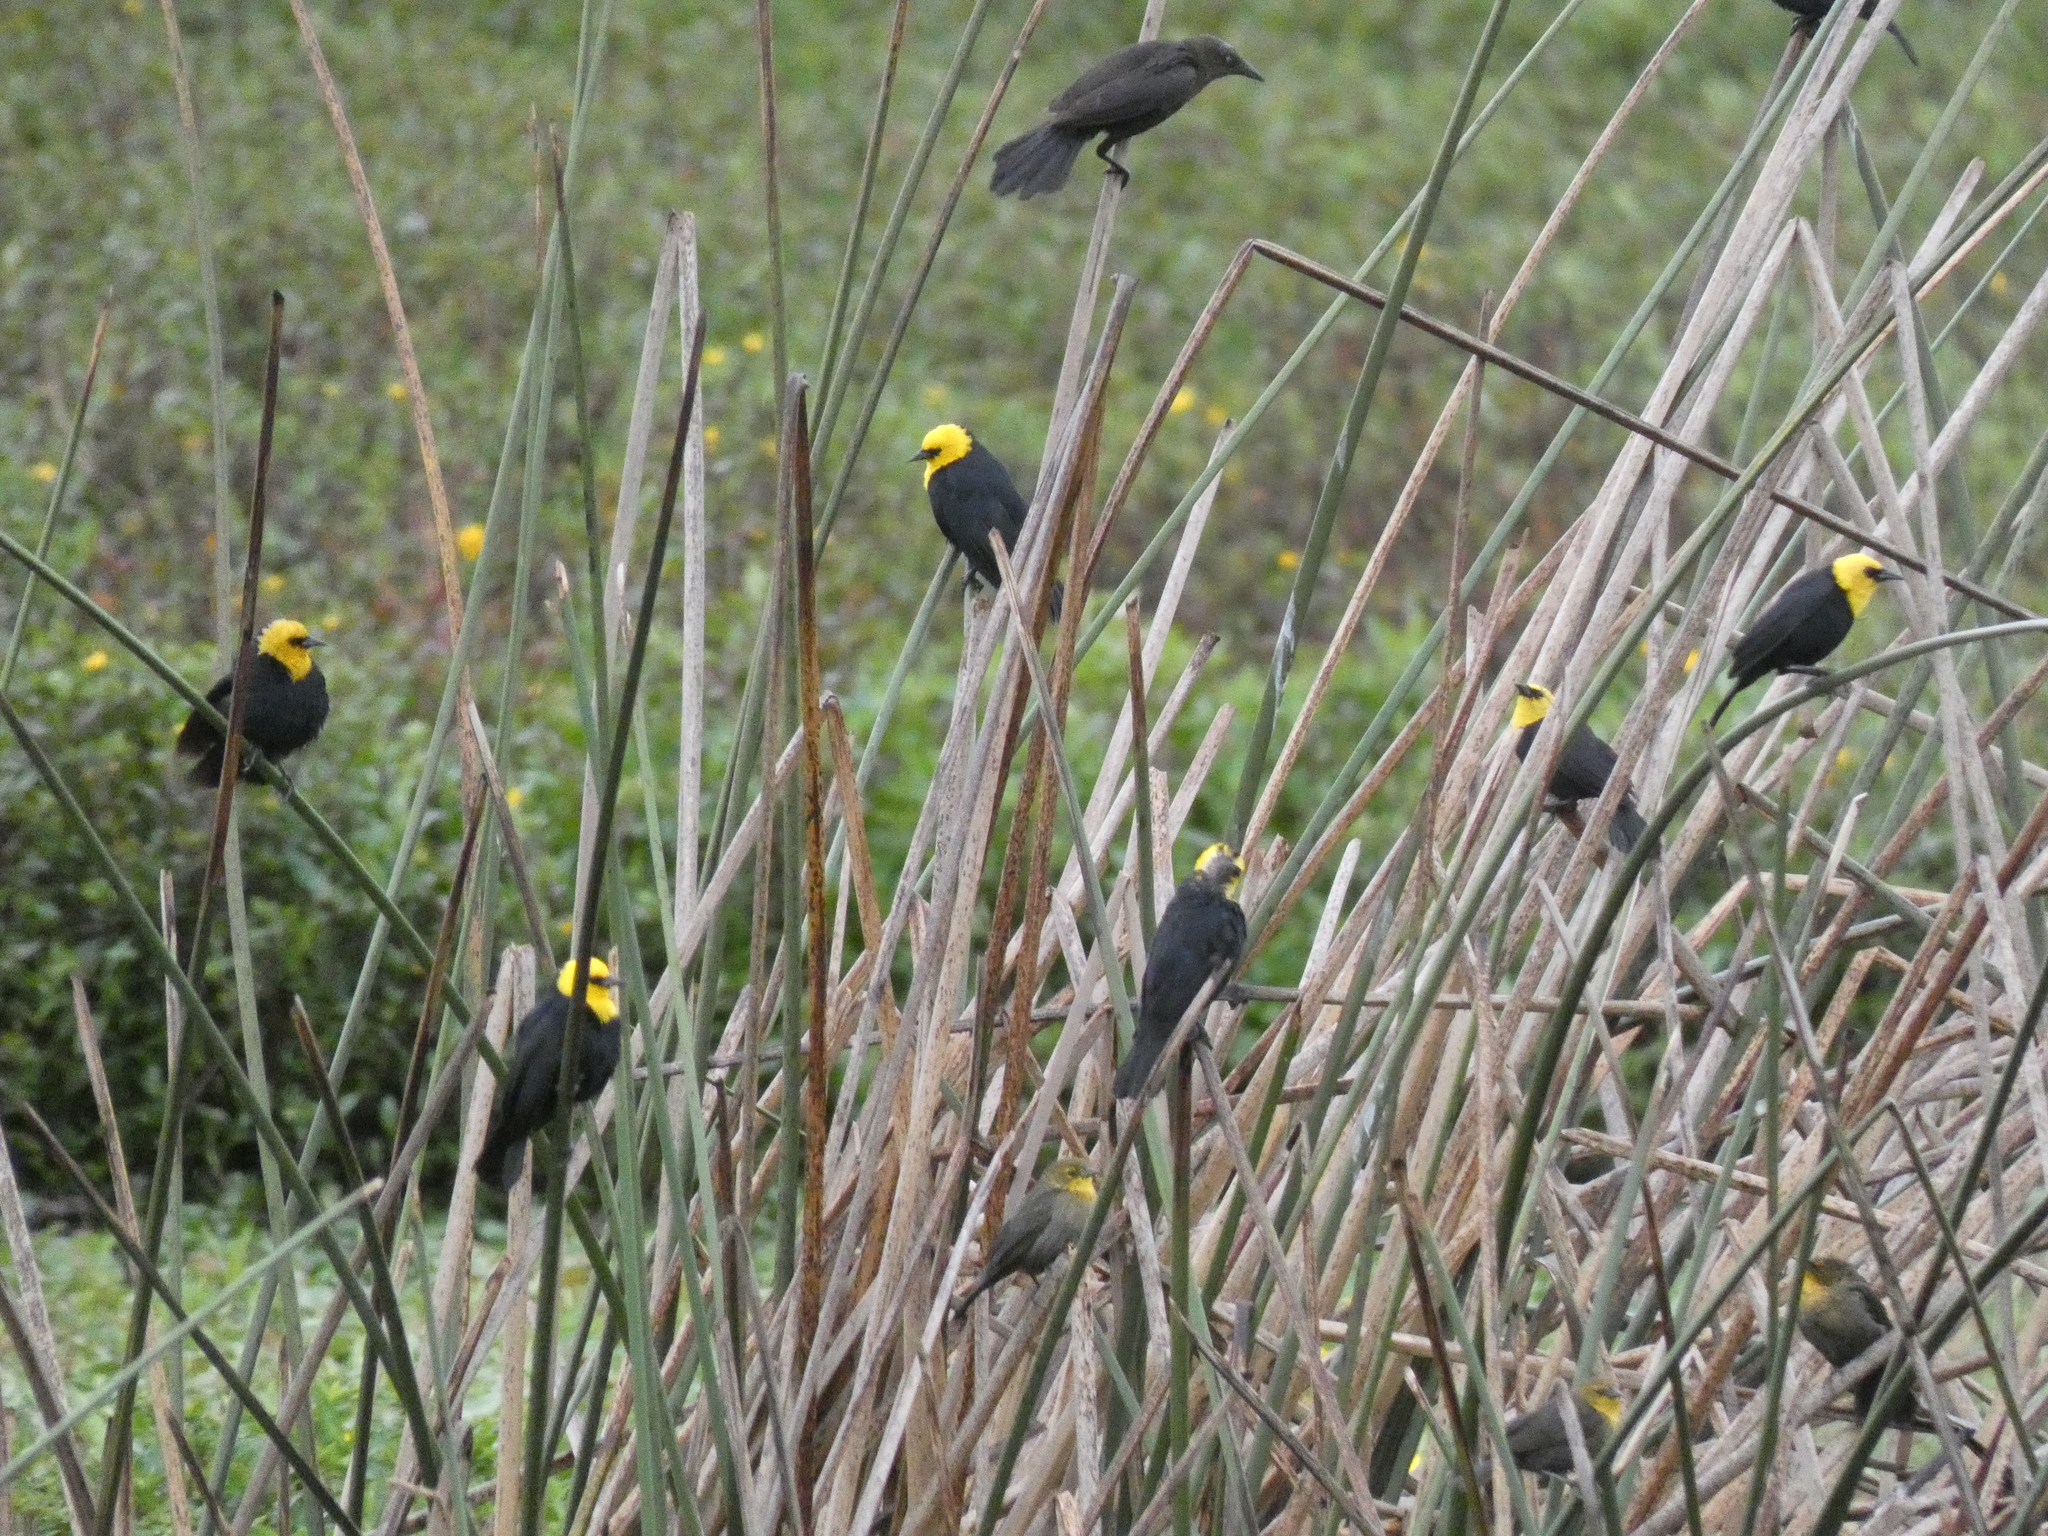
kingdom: Animalia
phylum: Chordata
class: Aves
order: Passeriformes
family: Icteridae
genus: Chrysomus
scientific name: Chrysomus icterocephalus
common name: Yellow-hooded blackbird
